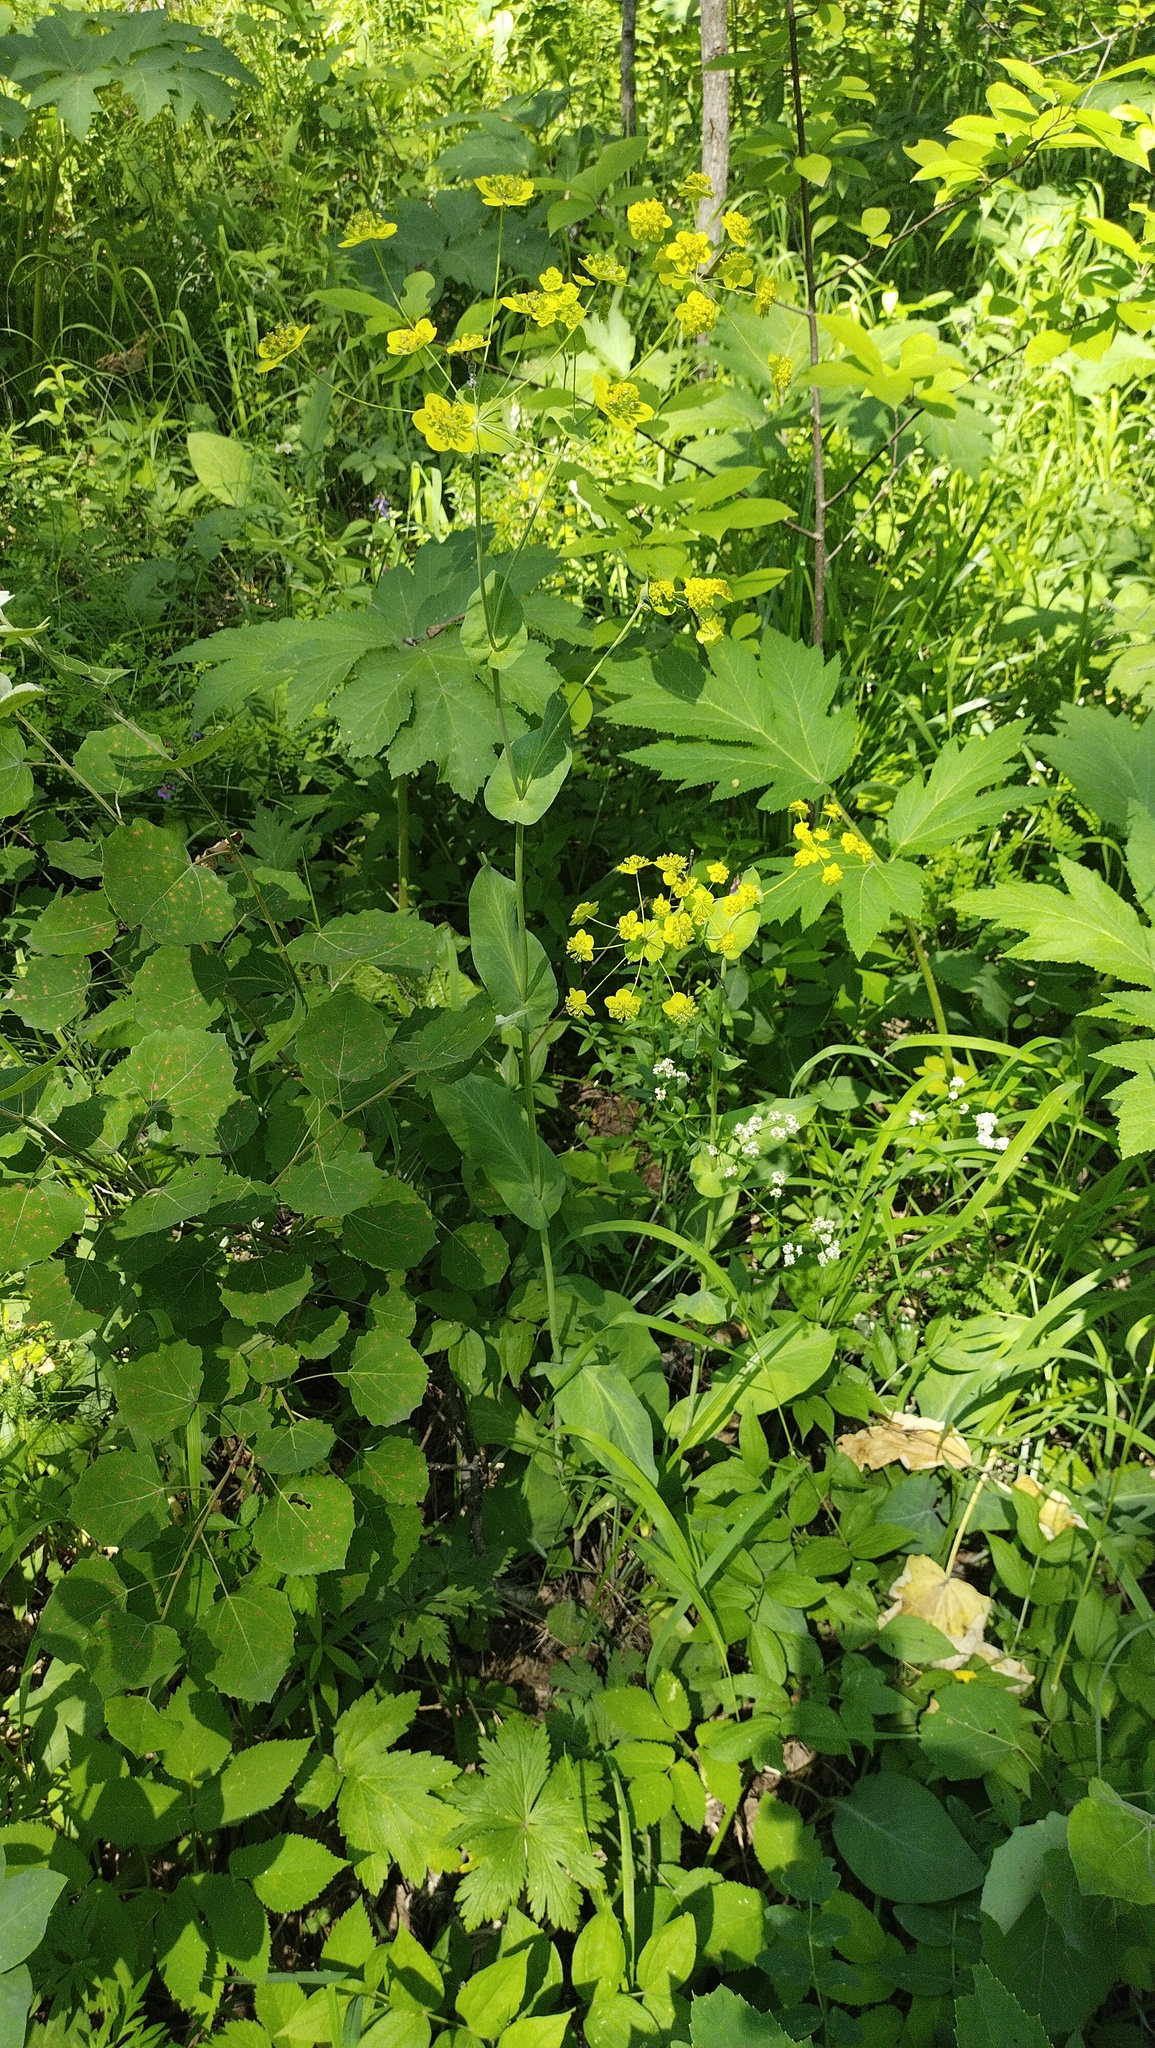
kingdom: Plantae
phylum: Tracheophyta
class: Magnoliopsida
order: Apiales
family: Apiaceae
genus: Bupleurum
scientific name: Bupleurum aureum
